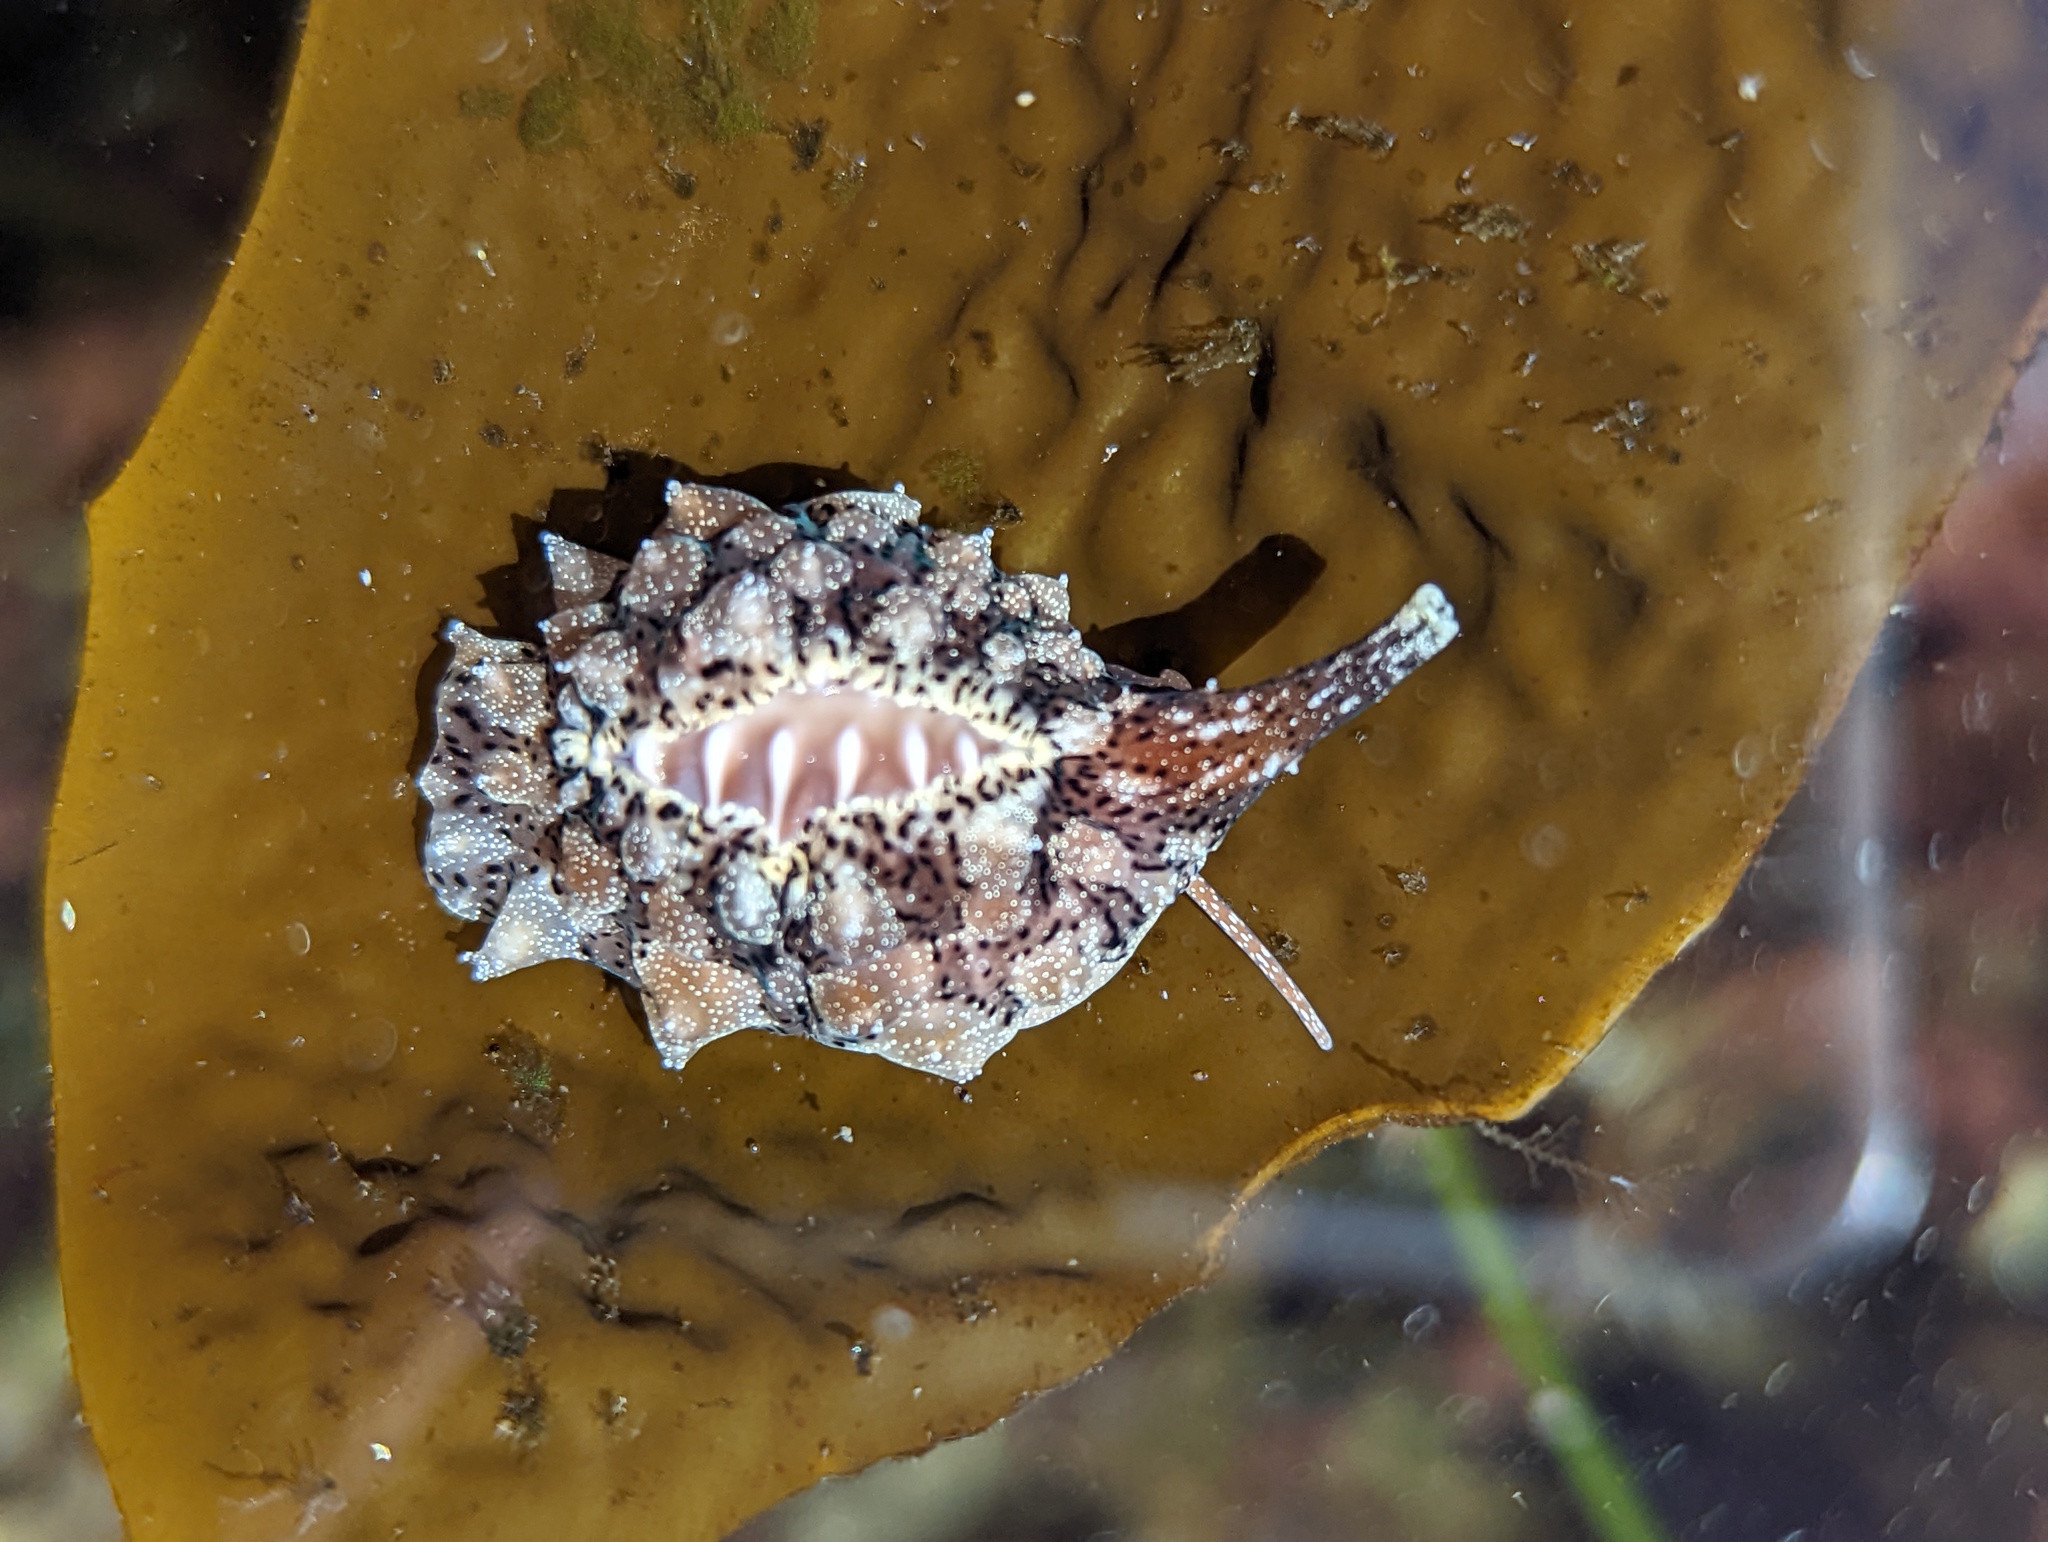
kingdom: Animalia
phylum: Mollusca
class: Gastropoda
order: Littorinimorpha
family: Triviidae
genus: Pusula
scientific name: Pusula solandri
